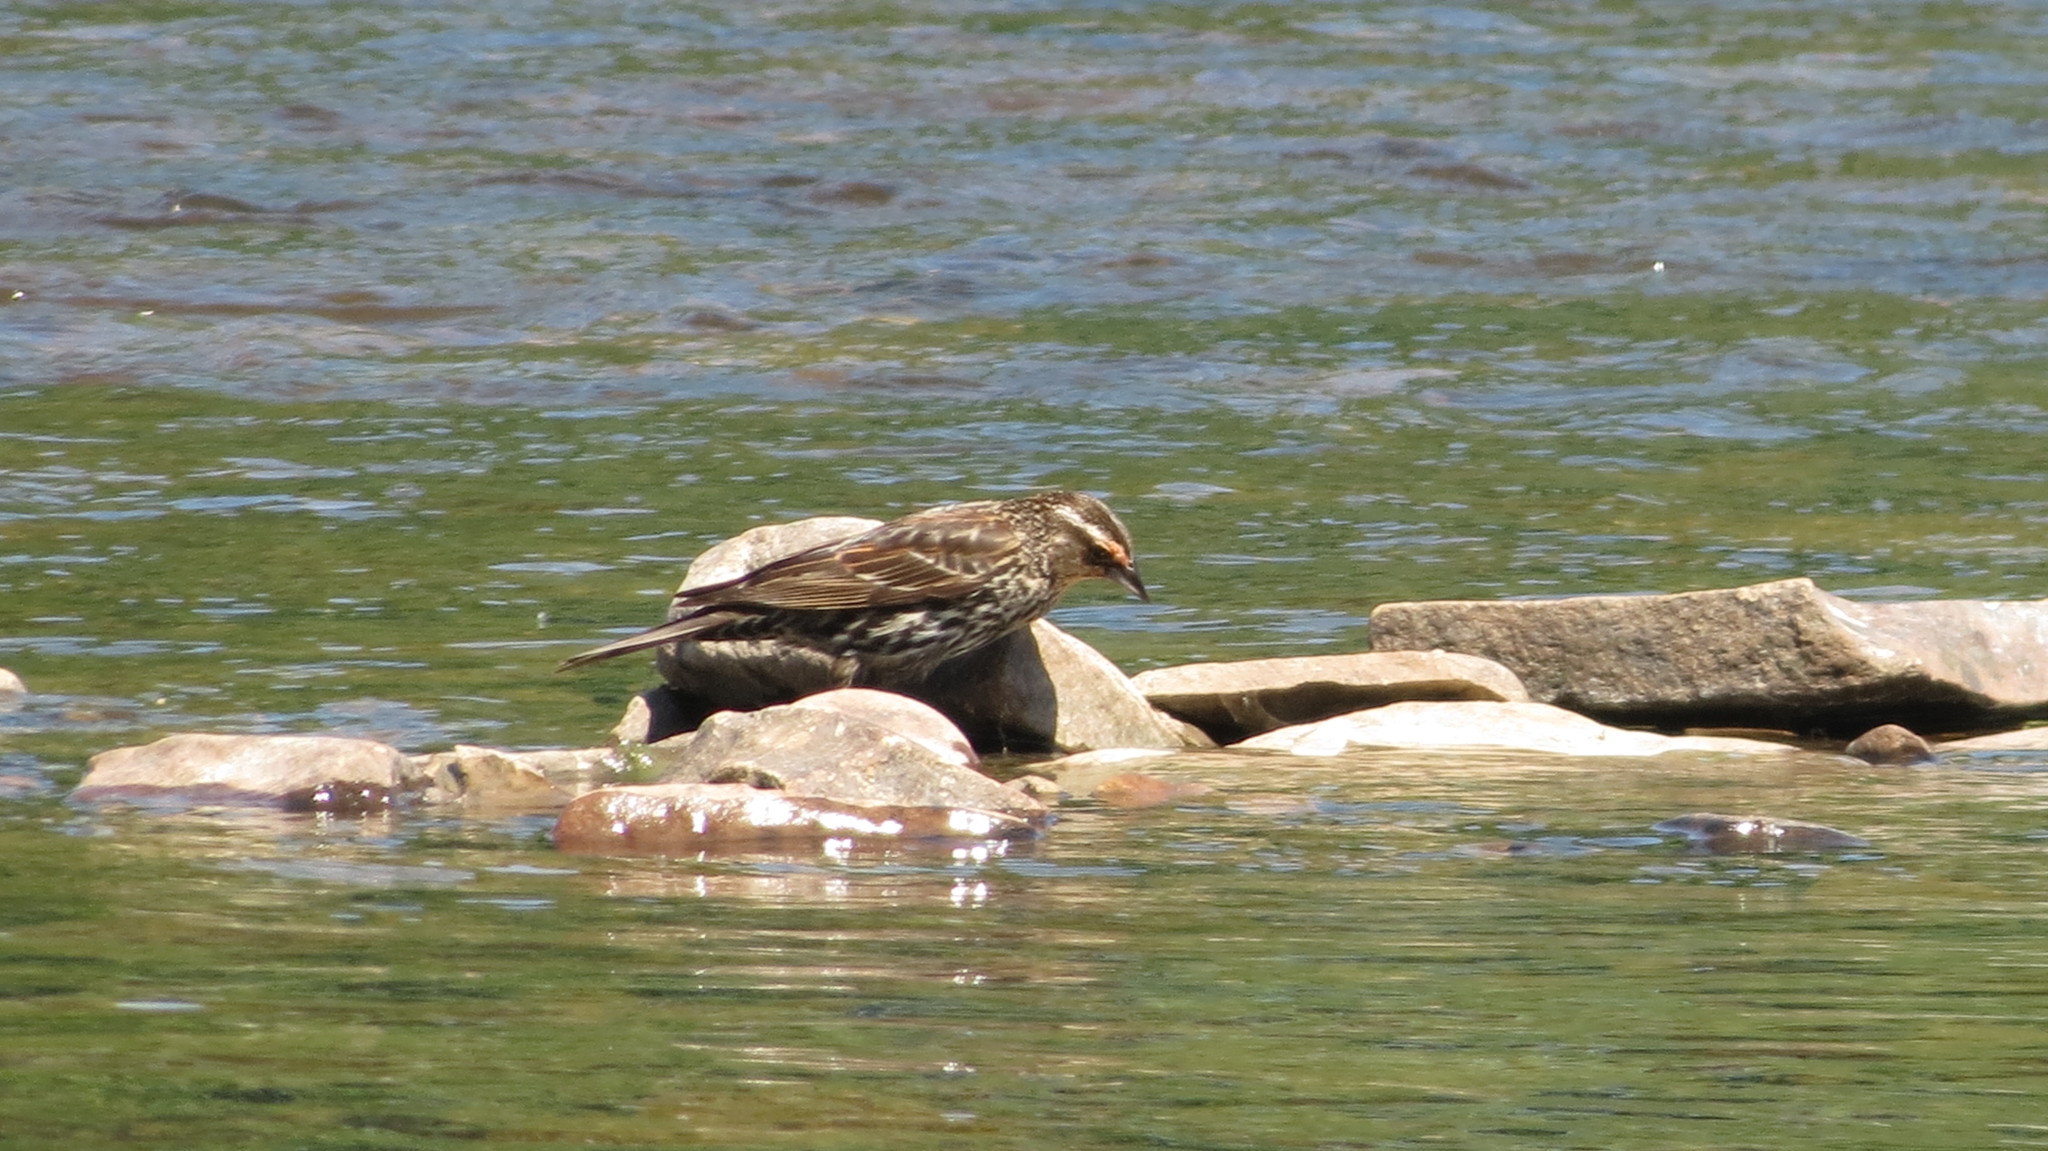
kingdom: Animalia
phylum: Chordata
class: Aves
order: Passeriformes
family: Icteridae
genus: Agelaius
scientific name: Agelaius phoeniceus
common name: Red-winged blackbird
